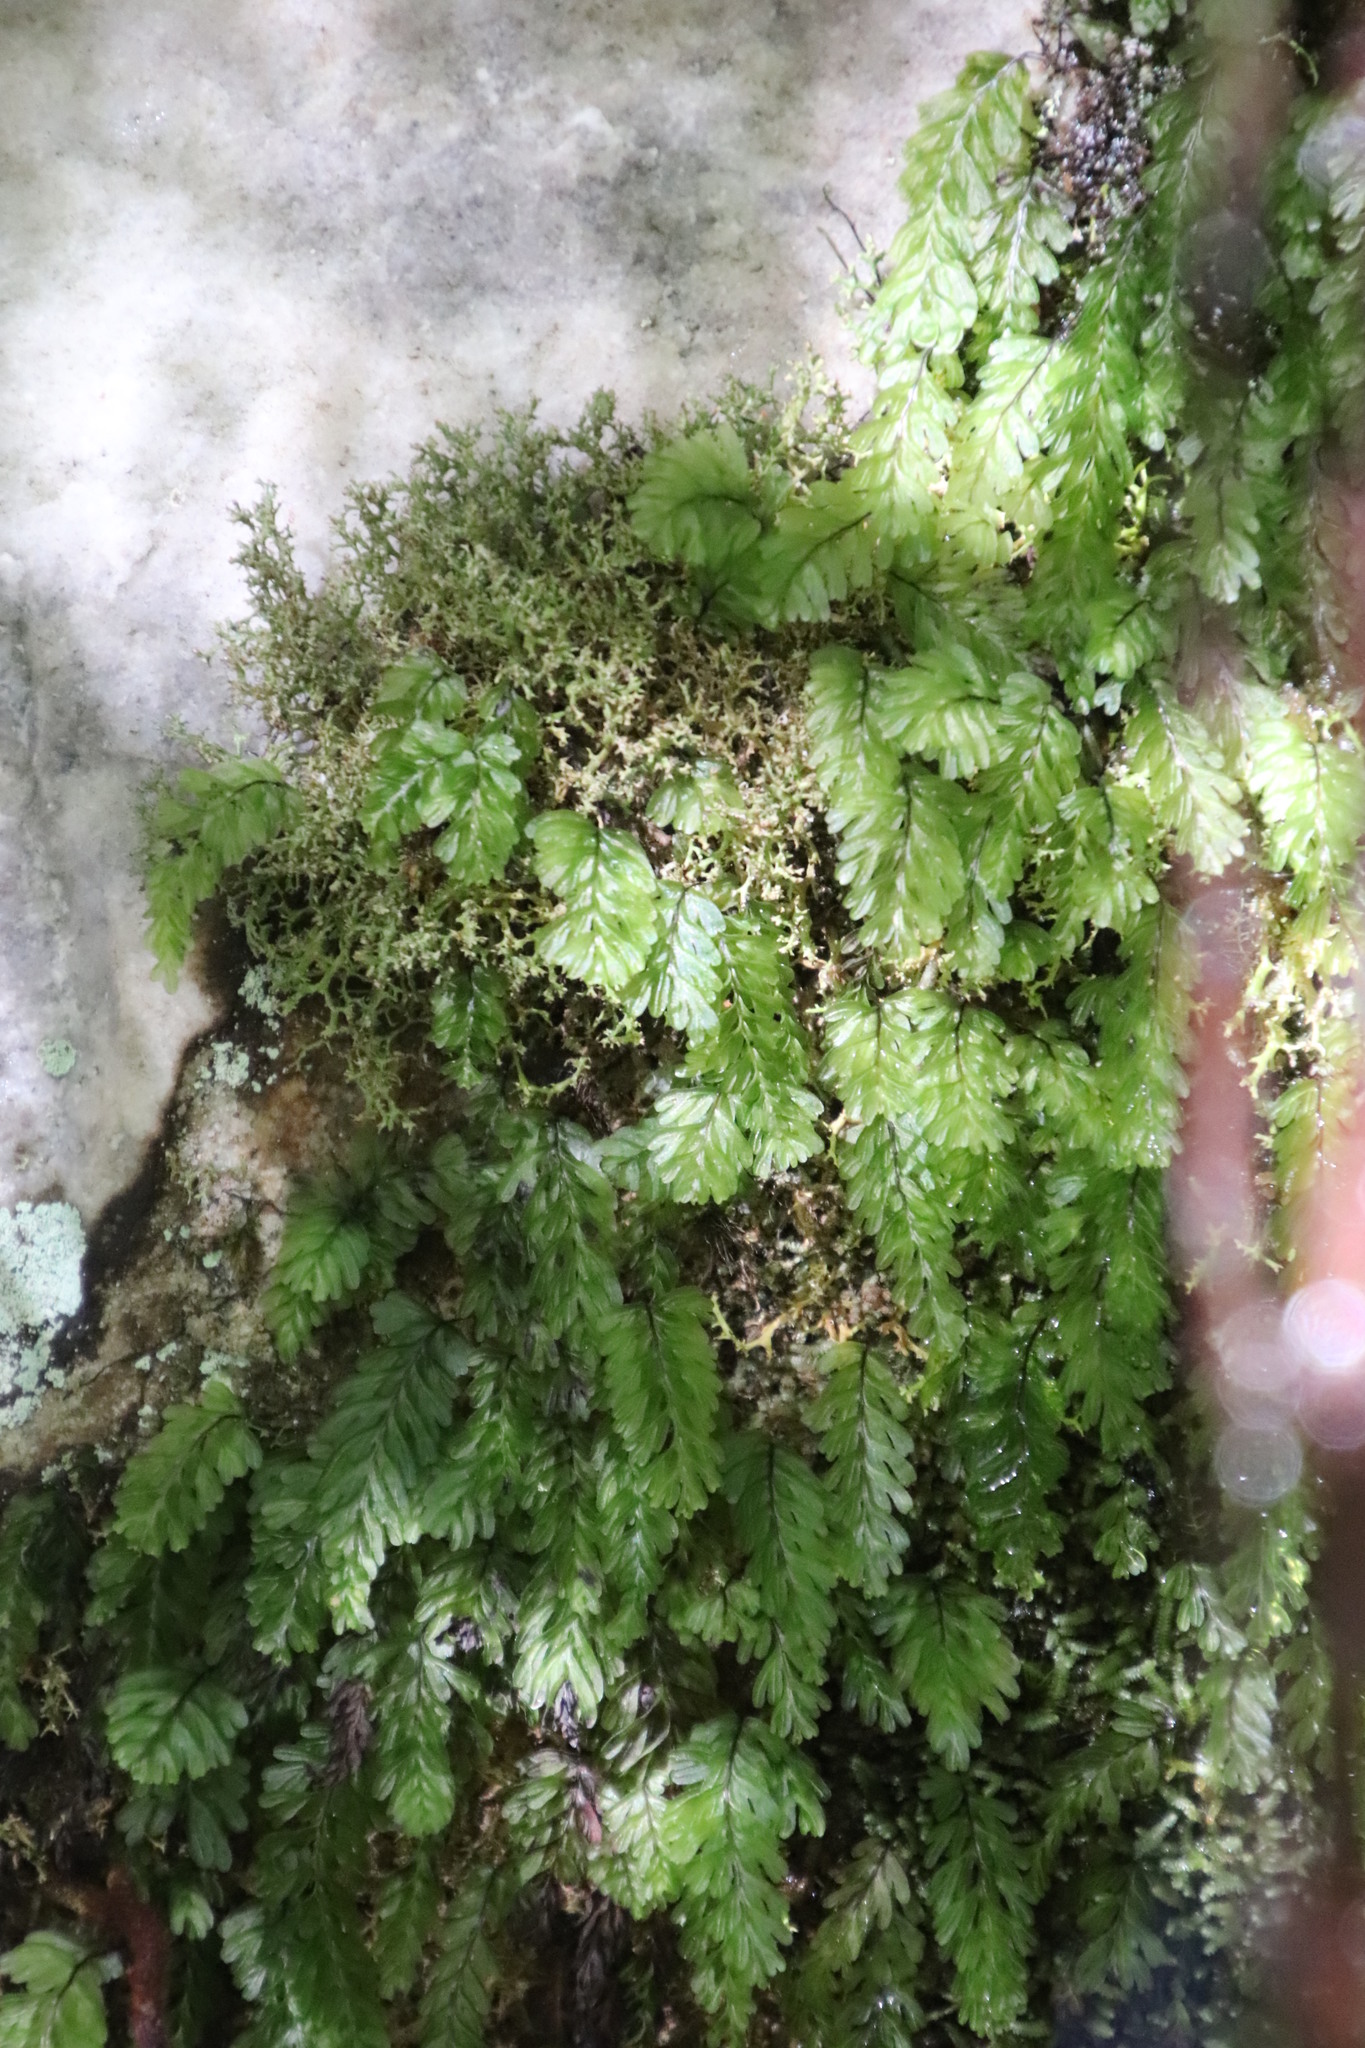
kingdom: Plantae
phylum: Tracheophyta
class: Polypodiopsida
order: Hymenophyllales
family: Hymenophyllaceae
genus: Hymenophyllum
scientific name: Hymenophyllum capense
